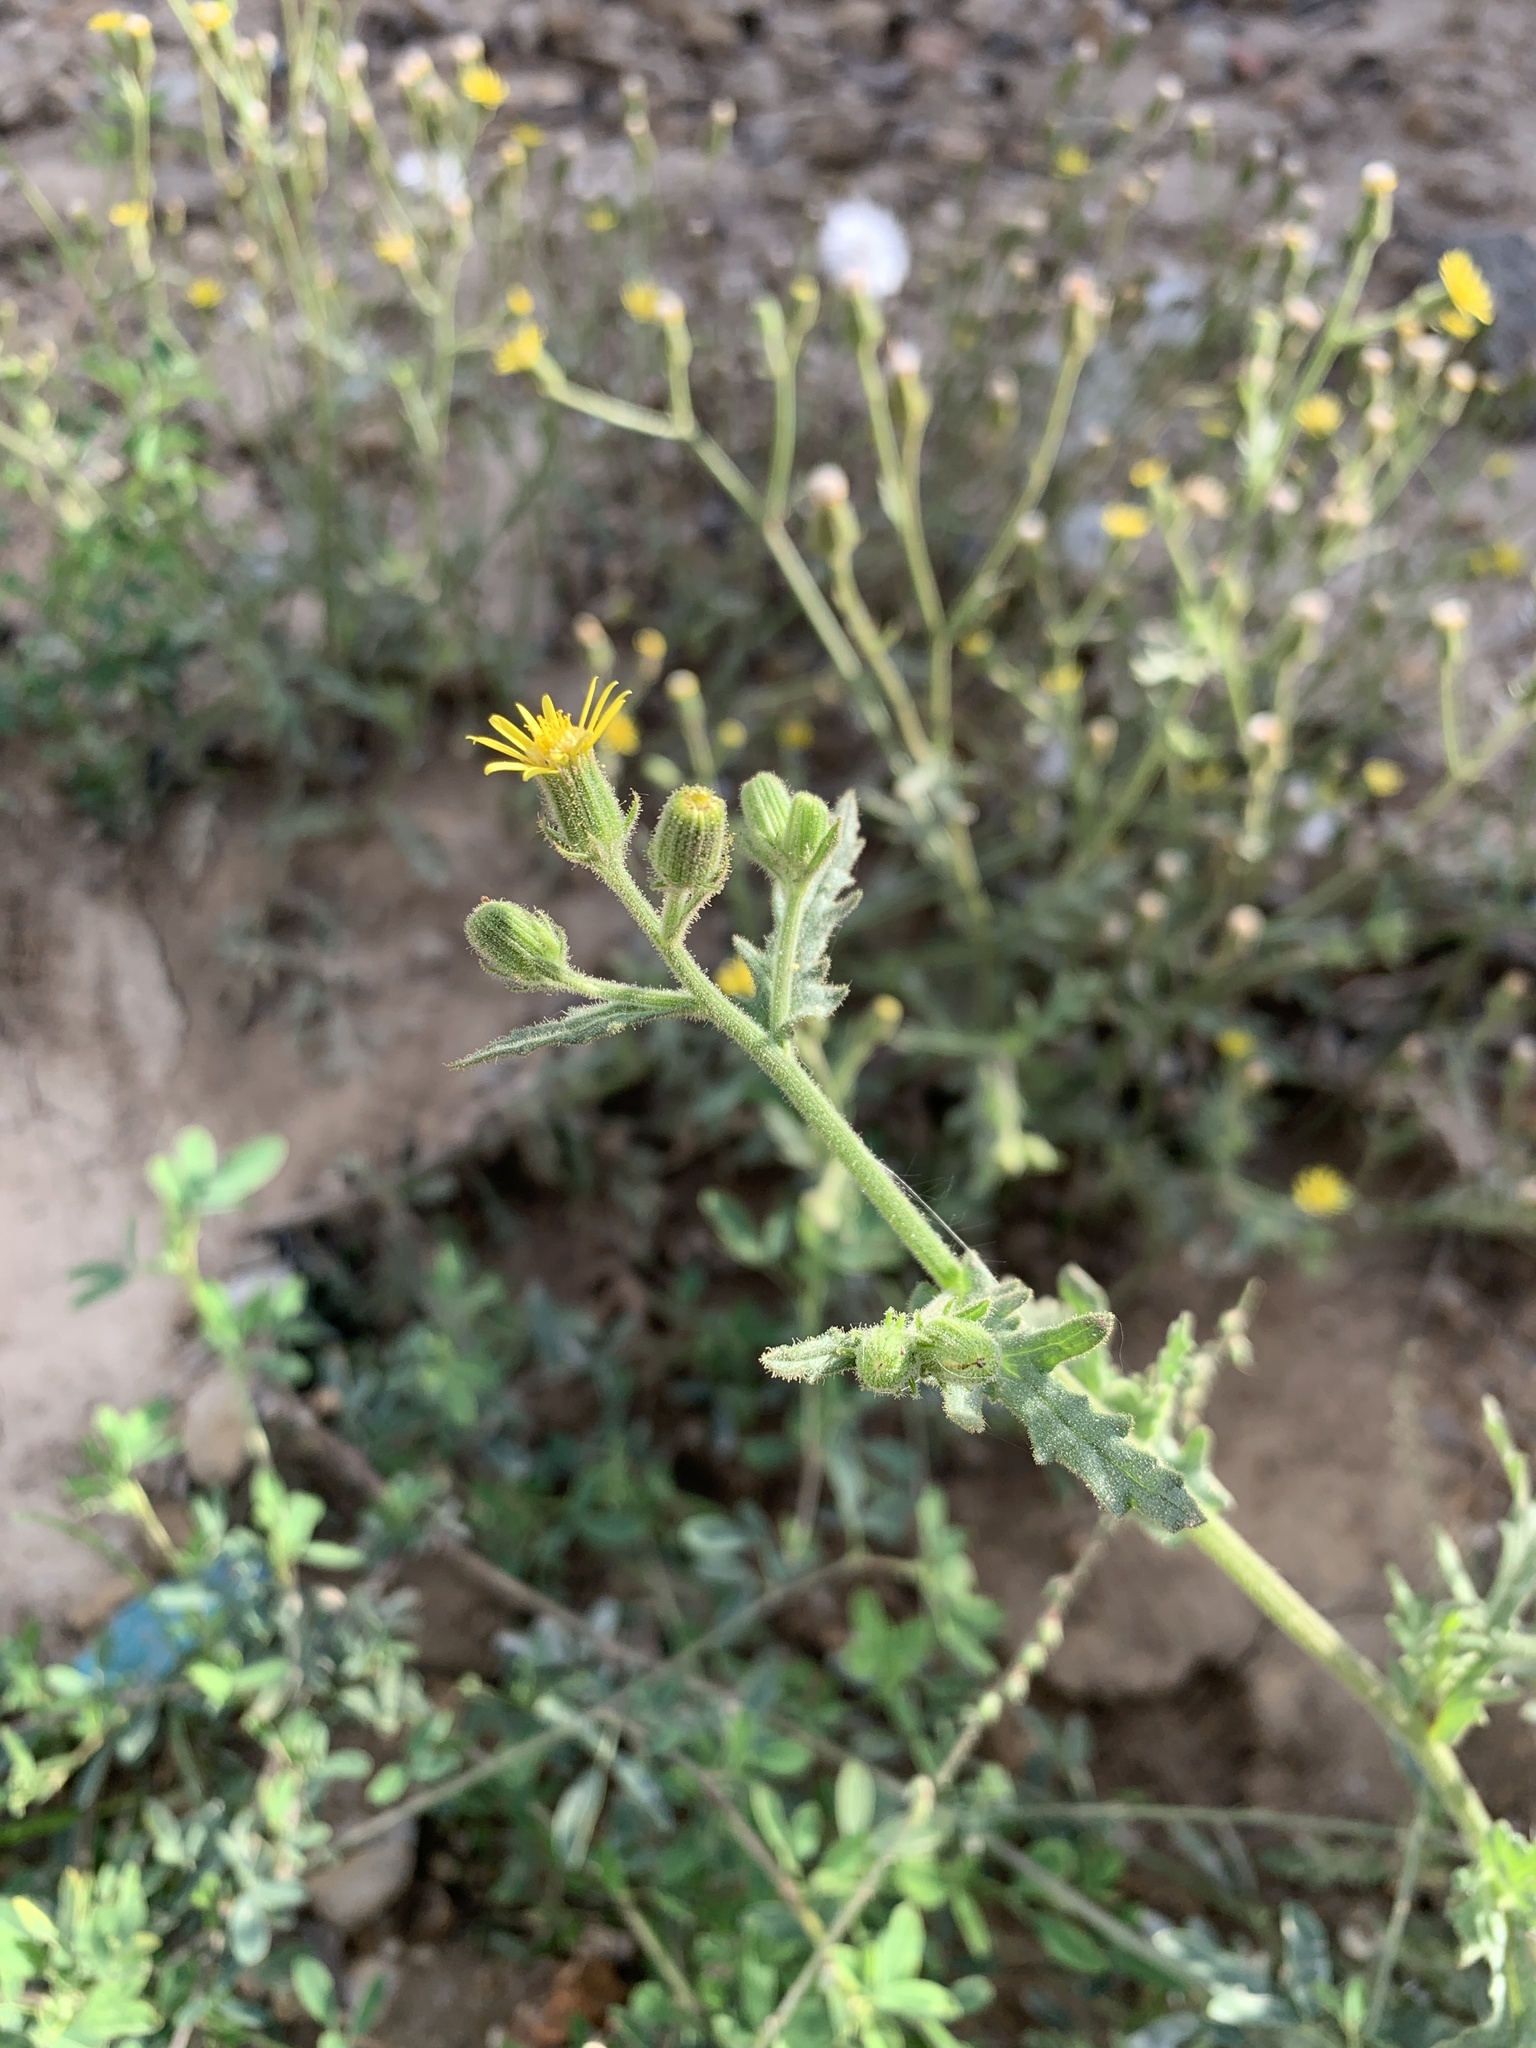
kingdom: Plantae
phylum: Tracheophyta
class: Magnoliopsida
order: Asterales
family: Asteraceae
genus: Senecio
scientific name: Senecio viscosus
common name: Sticky groundsel
